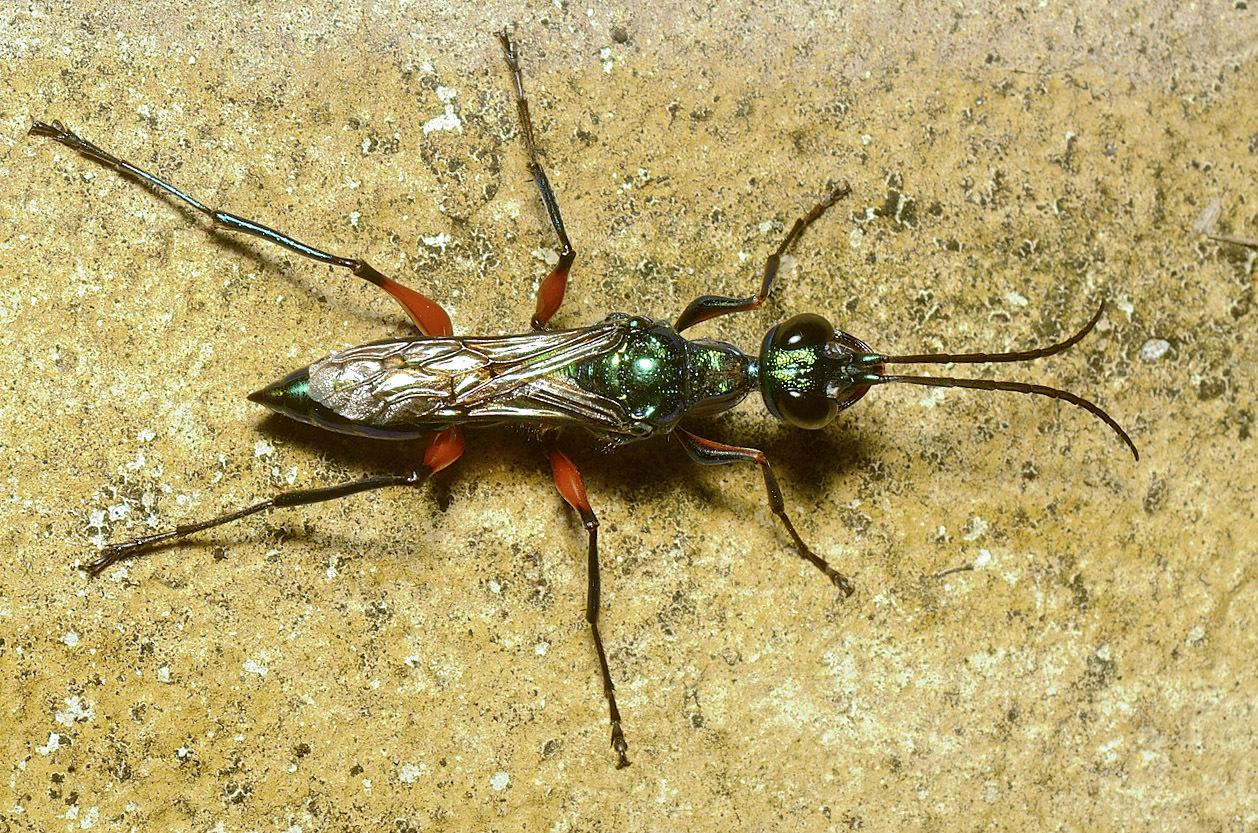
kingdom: Animalia
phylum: Arthropoda
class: Insecta
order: Hymenoptera
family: Ampulicidae
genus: Ampulex
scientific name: Ampulex compressa
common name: Emerald cockroach wasp
